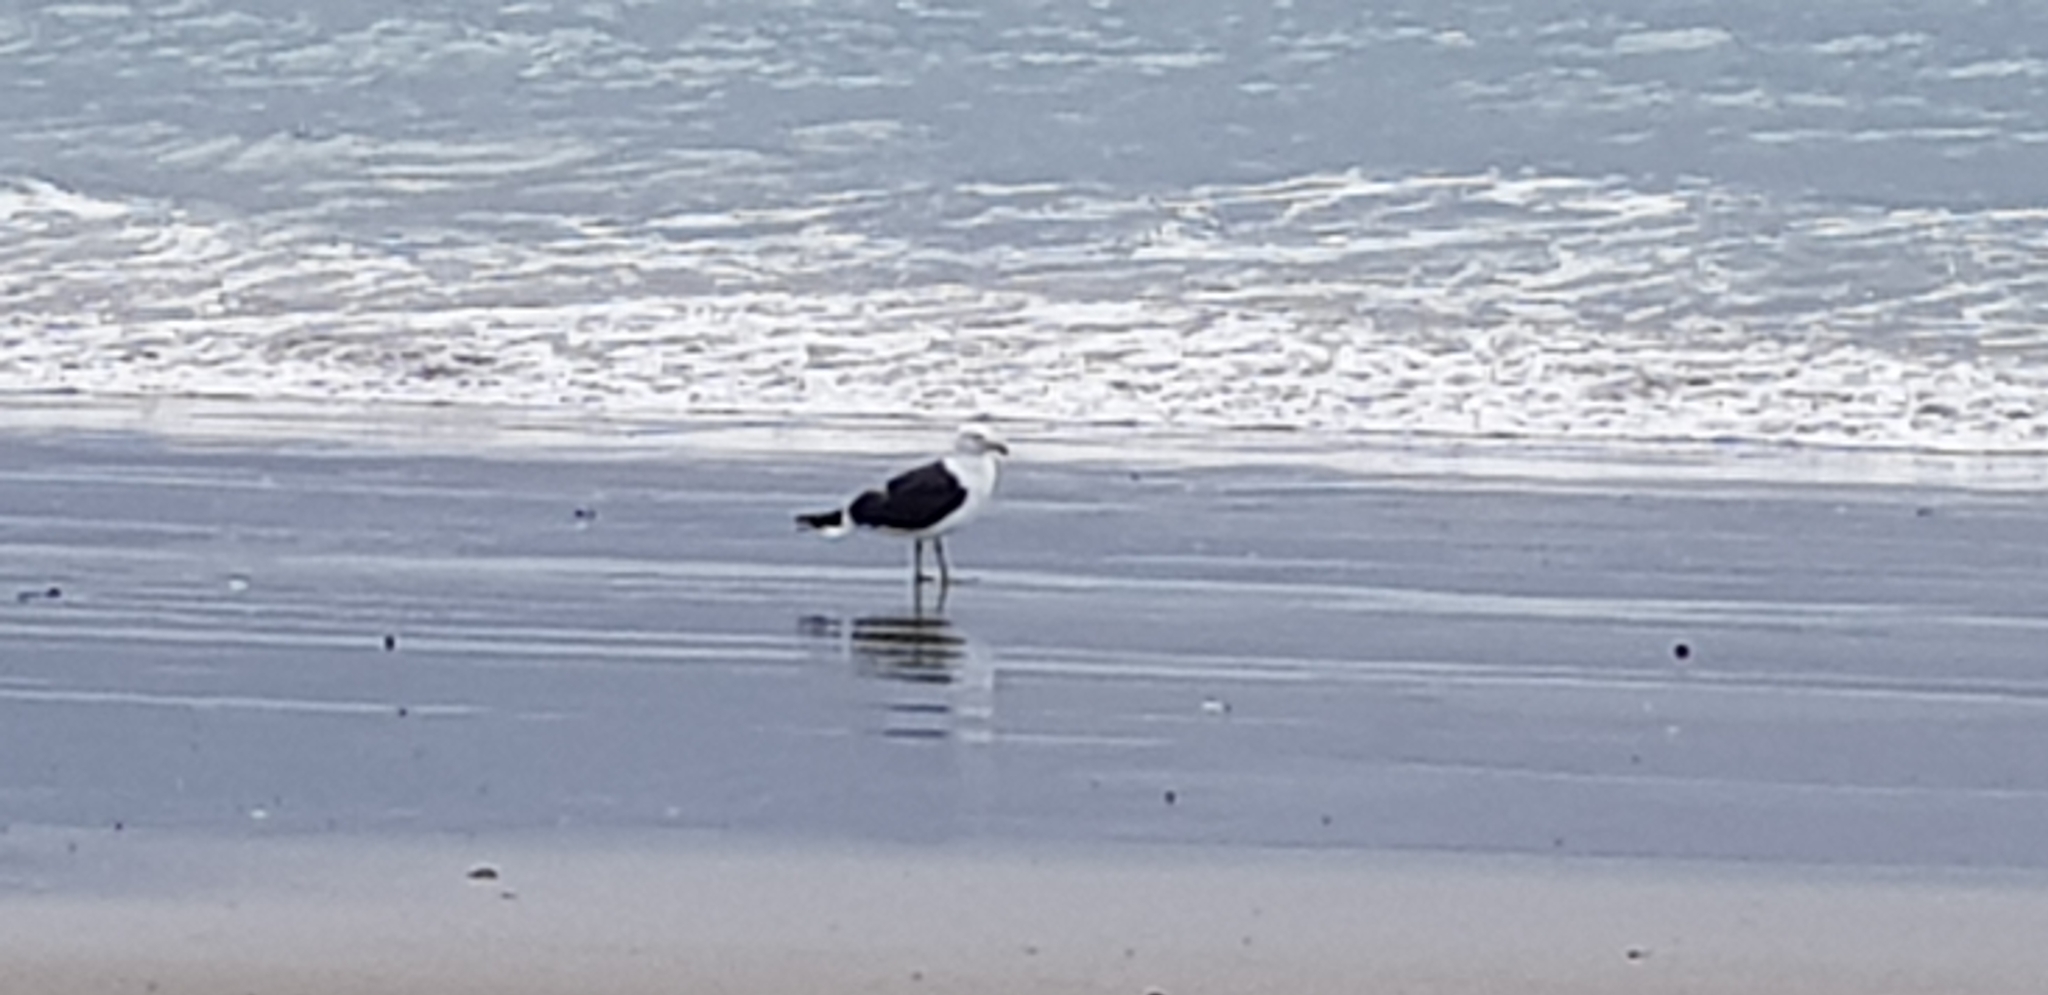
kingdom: Animalia
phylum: Chordata
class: Aves
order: Charadriiformes
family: Laridae
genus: Larus
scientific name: Larus dominicanus
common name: Kelp gull
